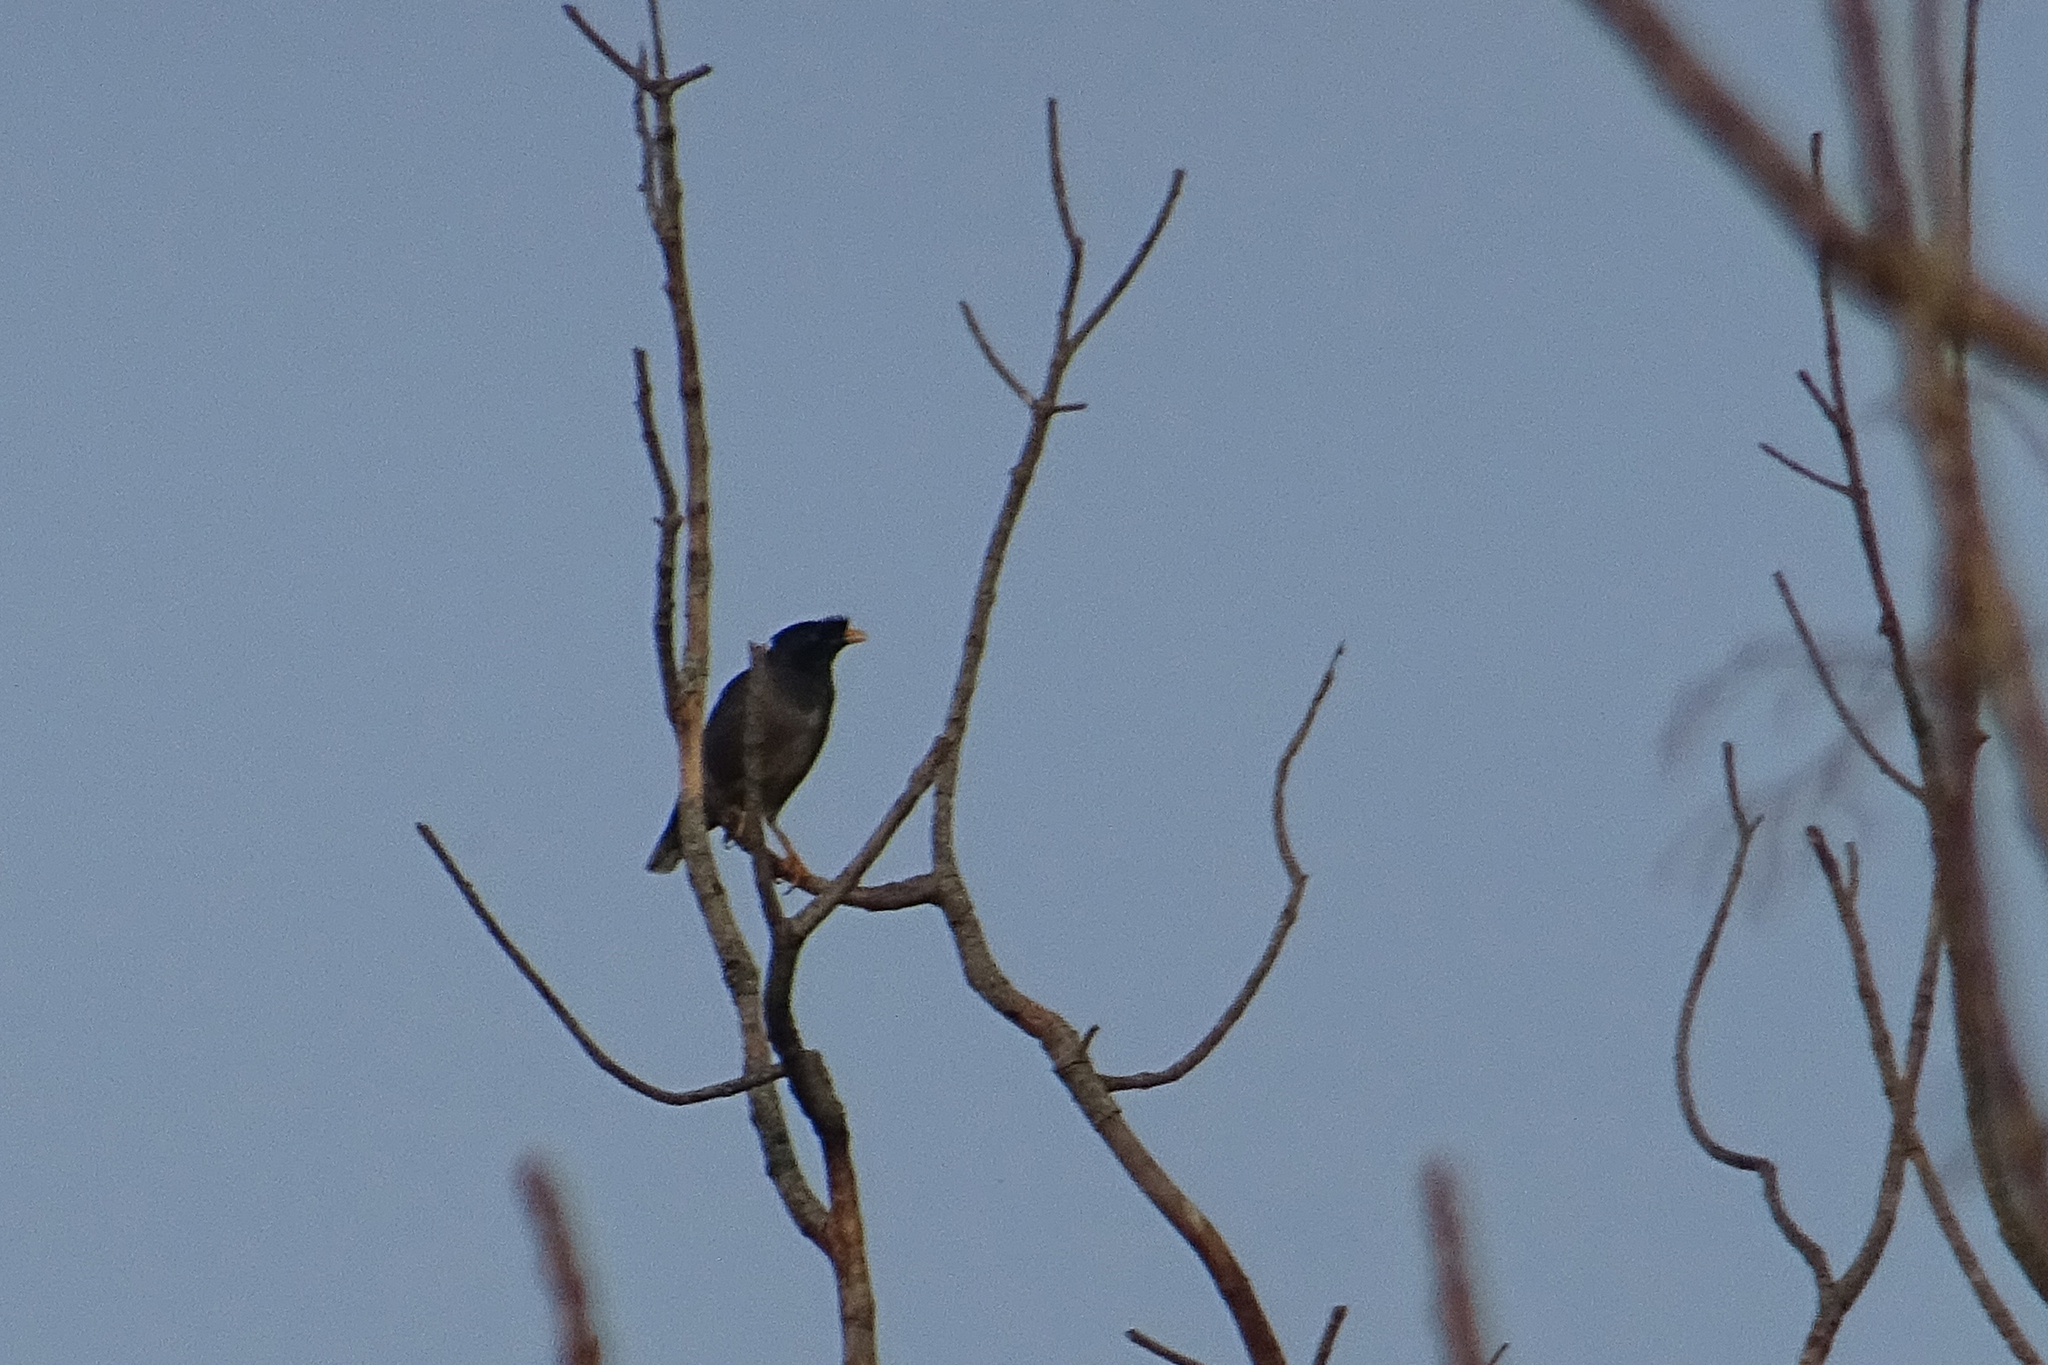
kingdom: Animalia
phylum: Chordata
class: Aves
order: Passeriformes
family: Sturnidae
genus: Acridotheres
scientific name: Acridotheres fuscus
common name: Jungle myna
